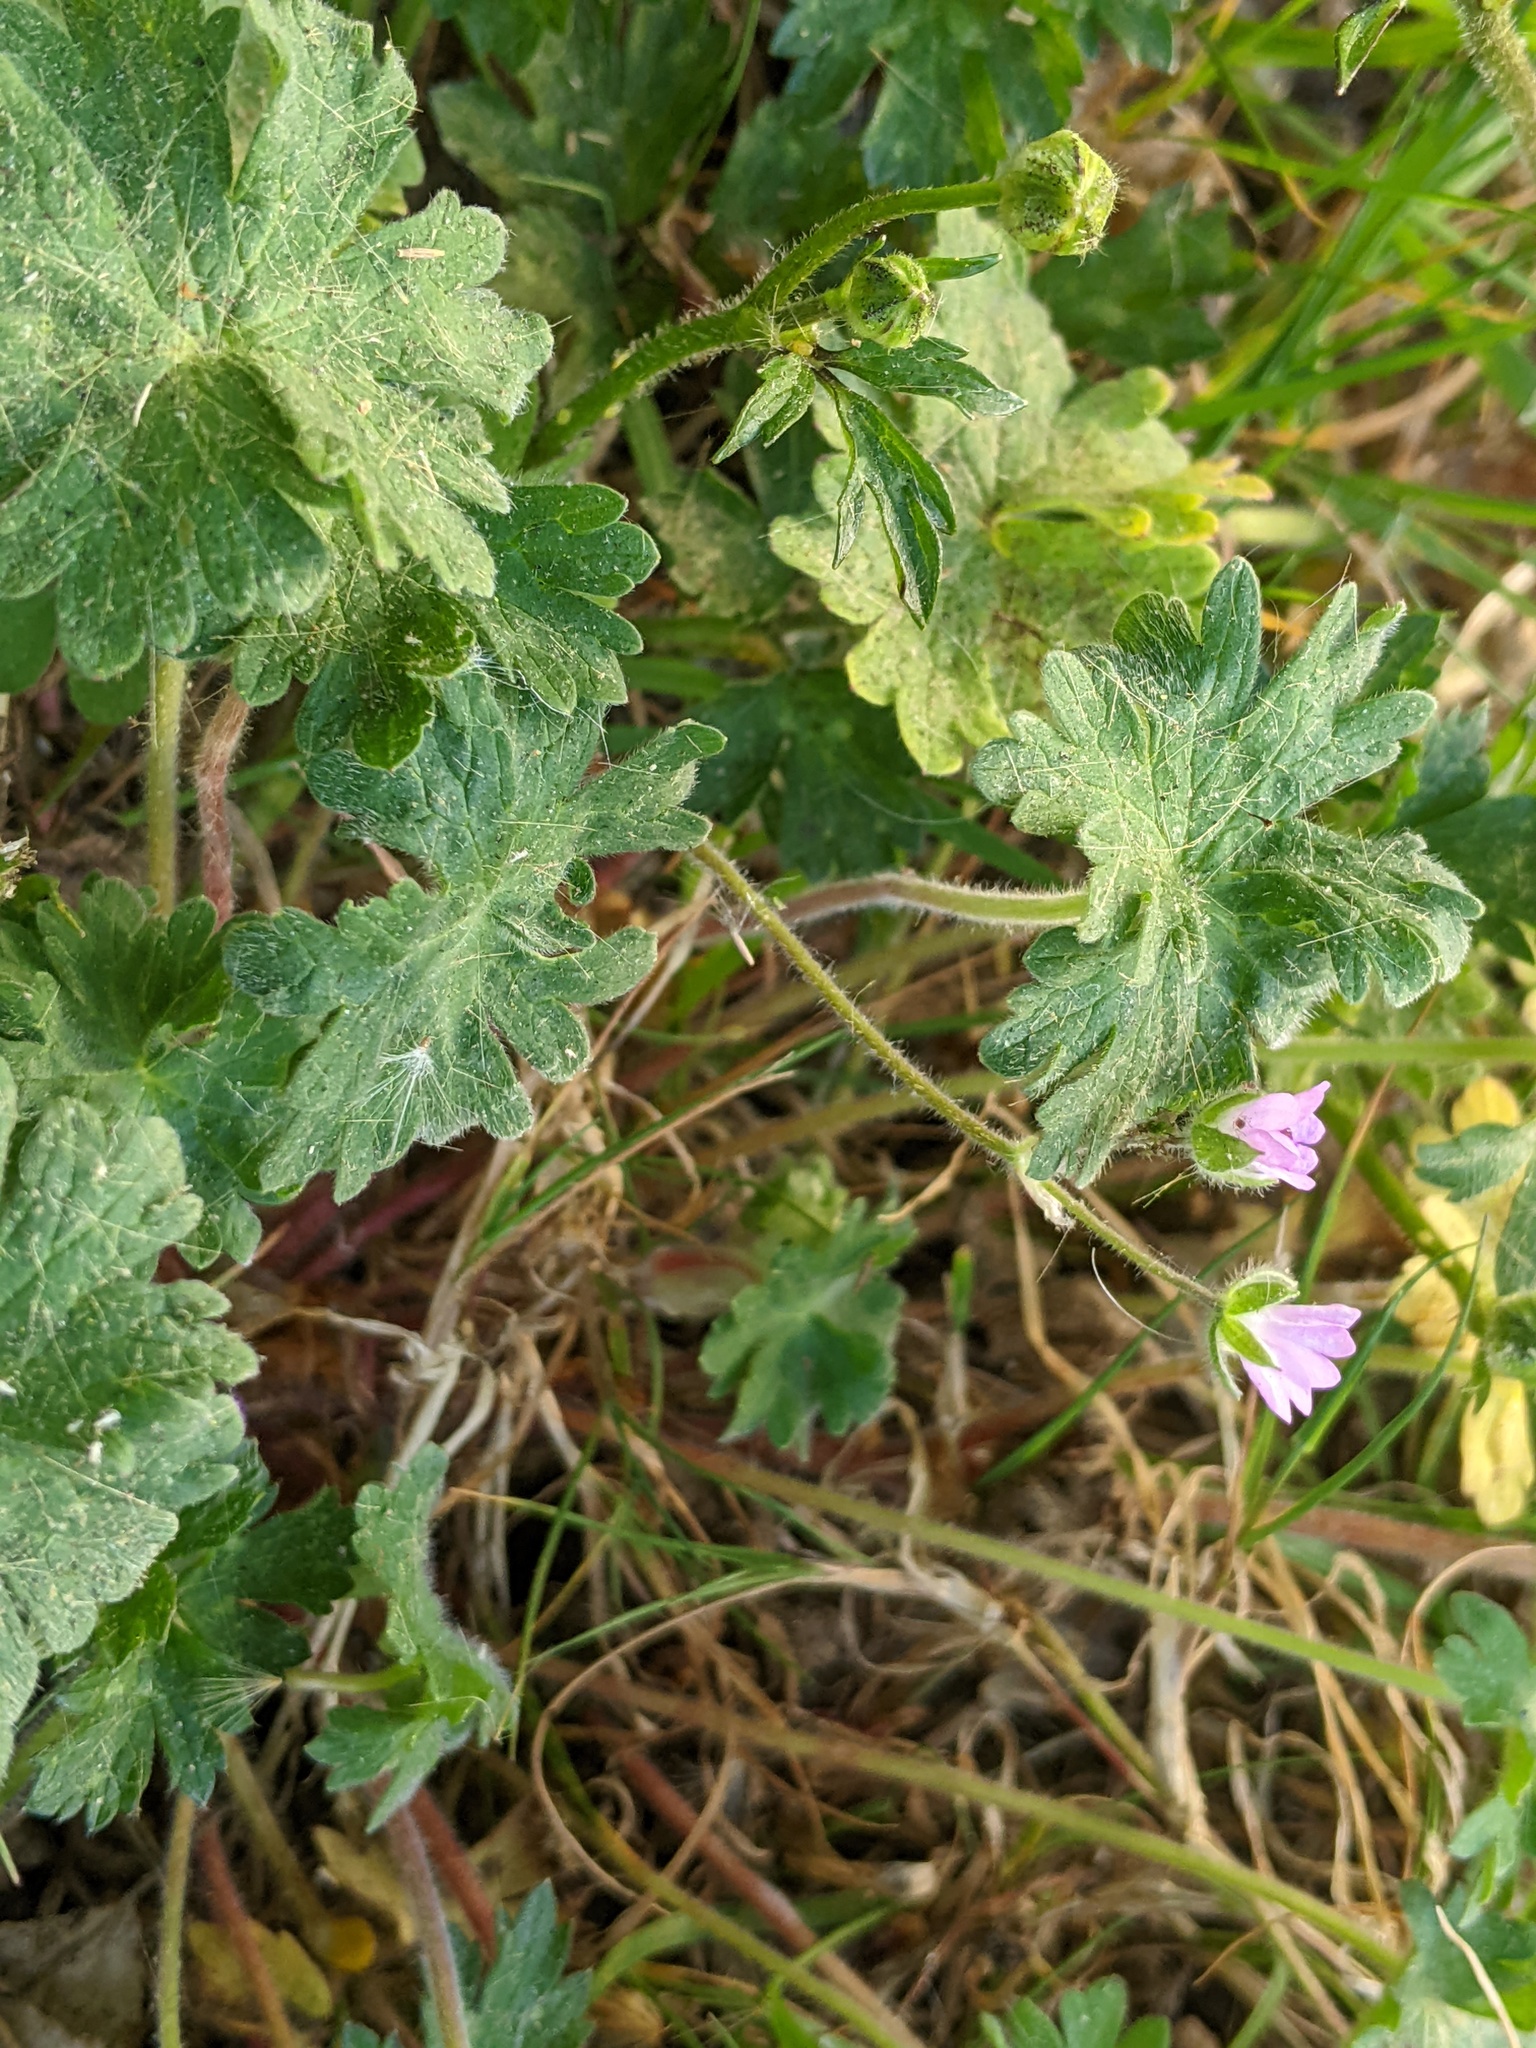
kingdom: Plantae
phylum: Tracheophyta
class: Magnoliopsida
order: Geraniales
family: Geraniaceae
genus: Geranium
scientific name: Geranium molle
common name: Dove's-foot crane's-bill
